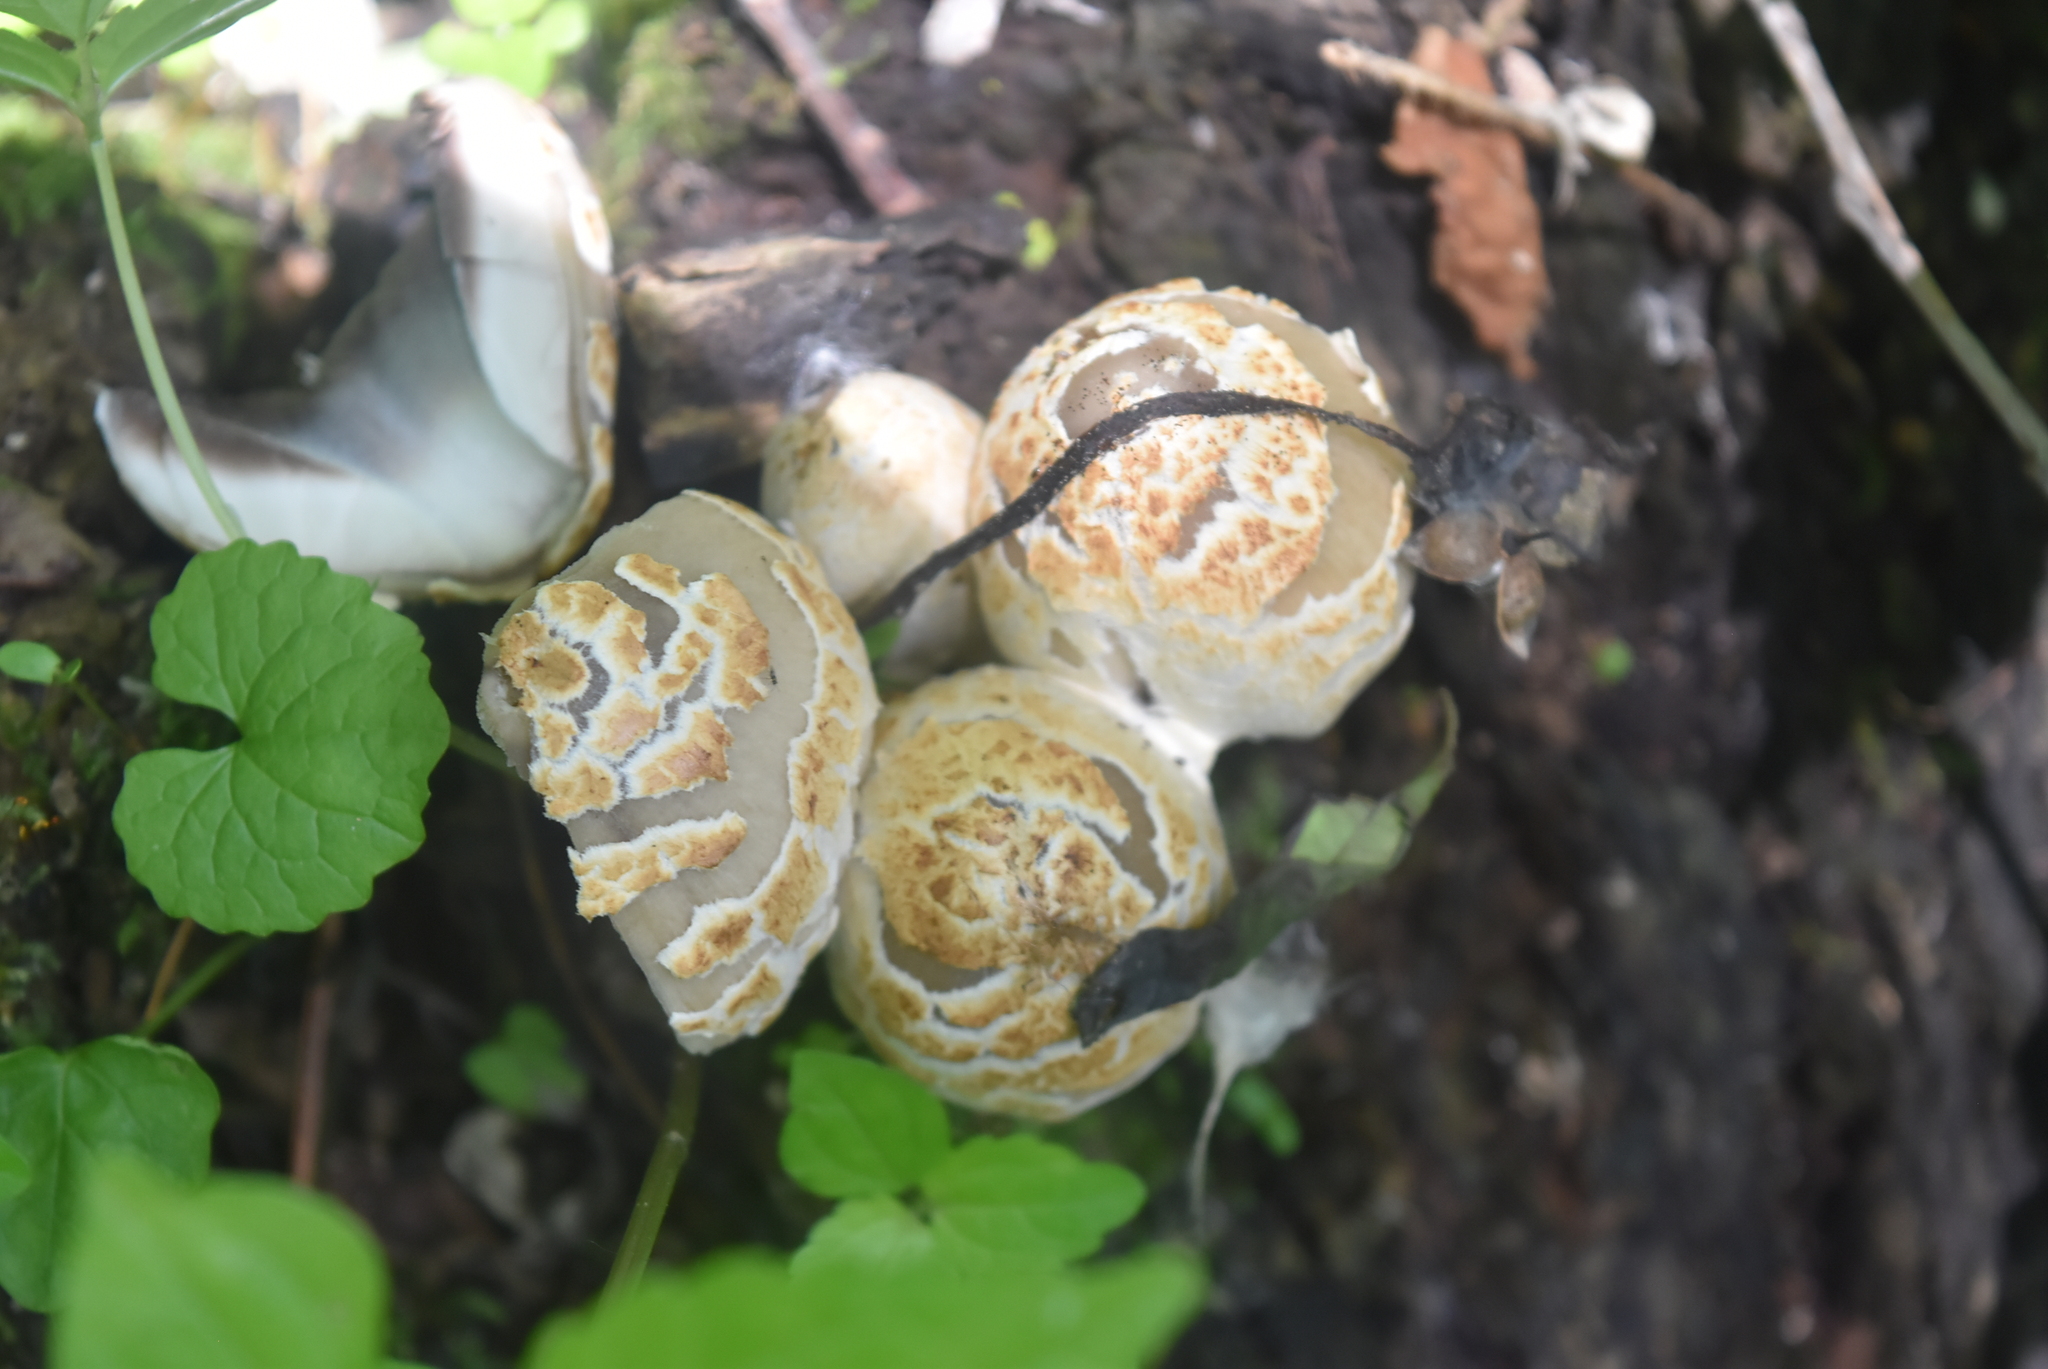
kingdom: Fungi
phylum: Basidiomycota
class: Agaricomycetes
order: Agaricales
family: Psathyrellaceae
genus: Coprinopsis
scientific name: Coprinopsis variegata
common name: Scaly ink cap
